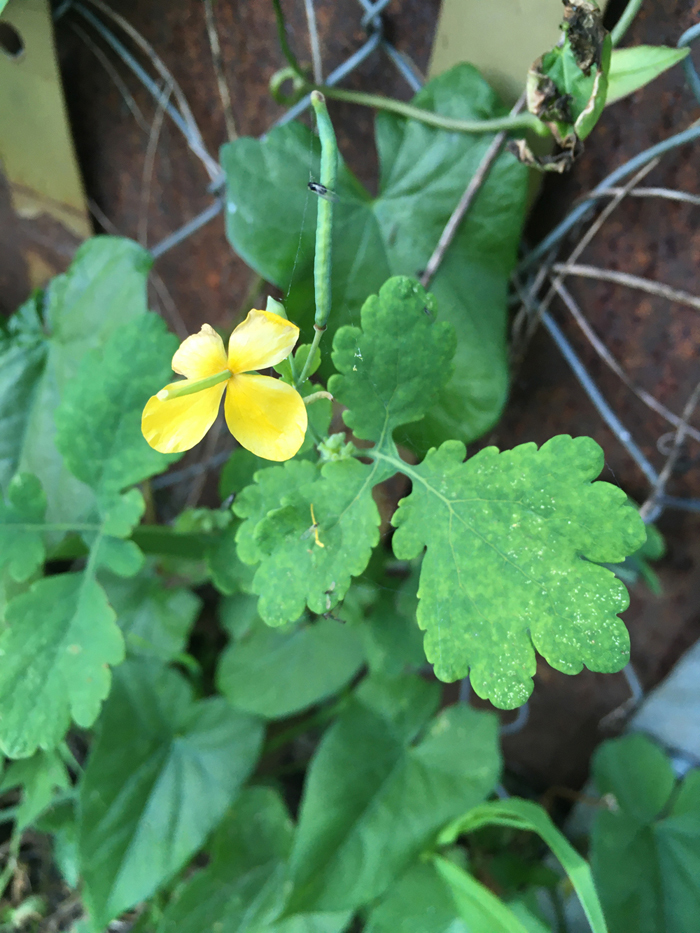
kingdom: Plantae
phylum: Tracheophyta
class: Magnoliopsida
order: Ranunculales
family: Papaveraceae
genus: Chelidonium
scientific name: Chelidonium majus
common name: Greater celandine
